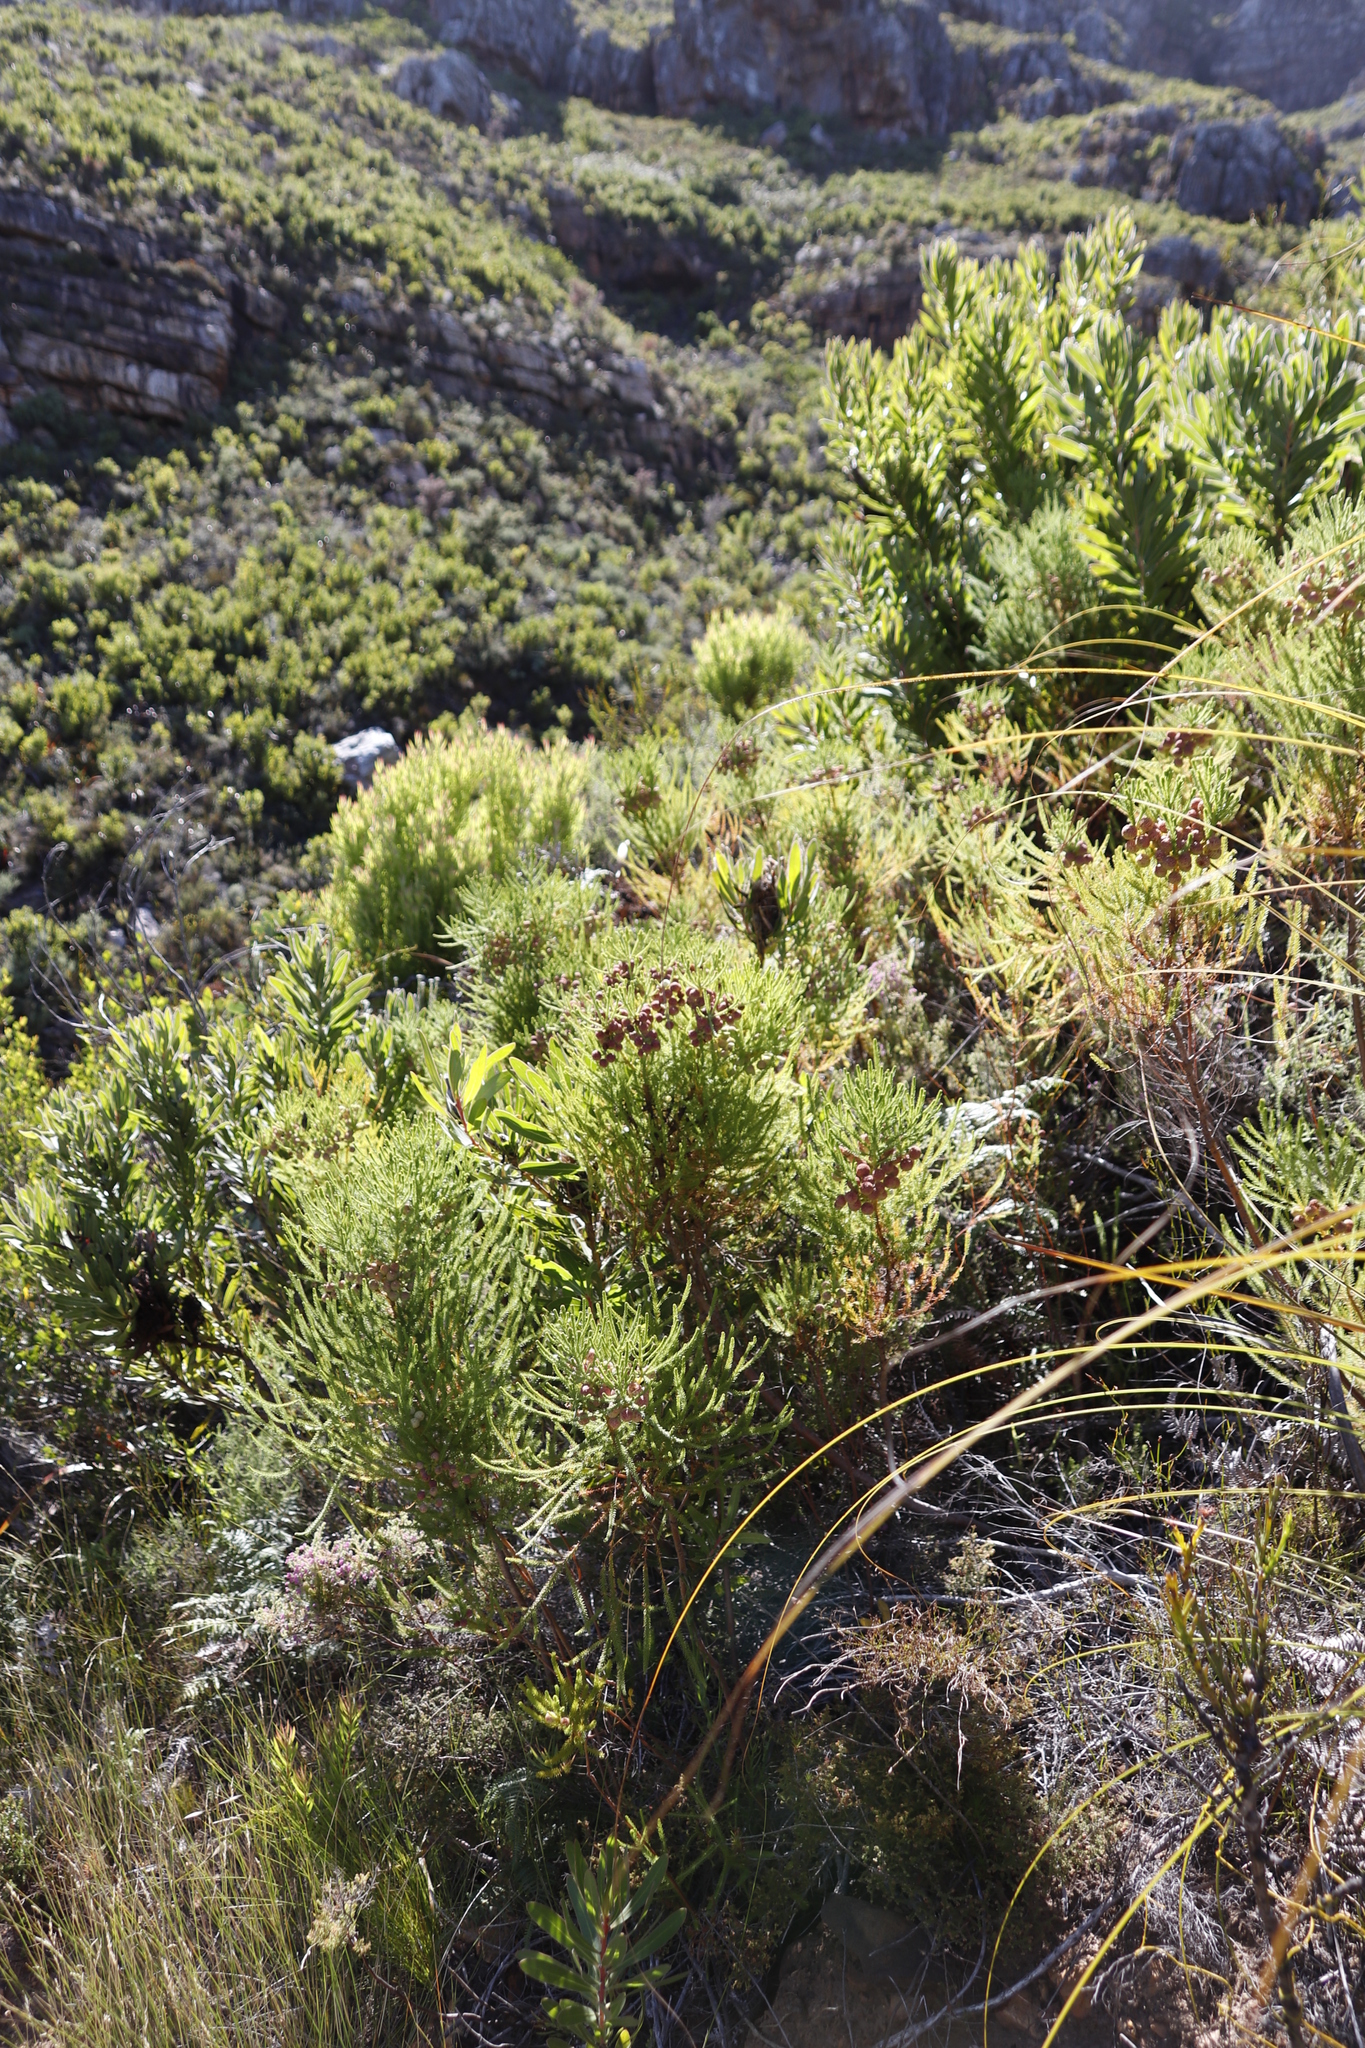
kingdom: Plantae
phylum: Tracheophyta
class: Magnoliopsida
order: Bruniales
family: Bruniaceae
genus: Berzelia
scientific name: Berzelia lanuginosa
